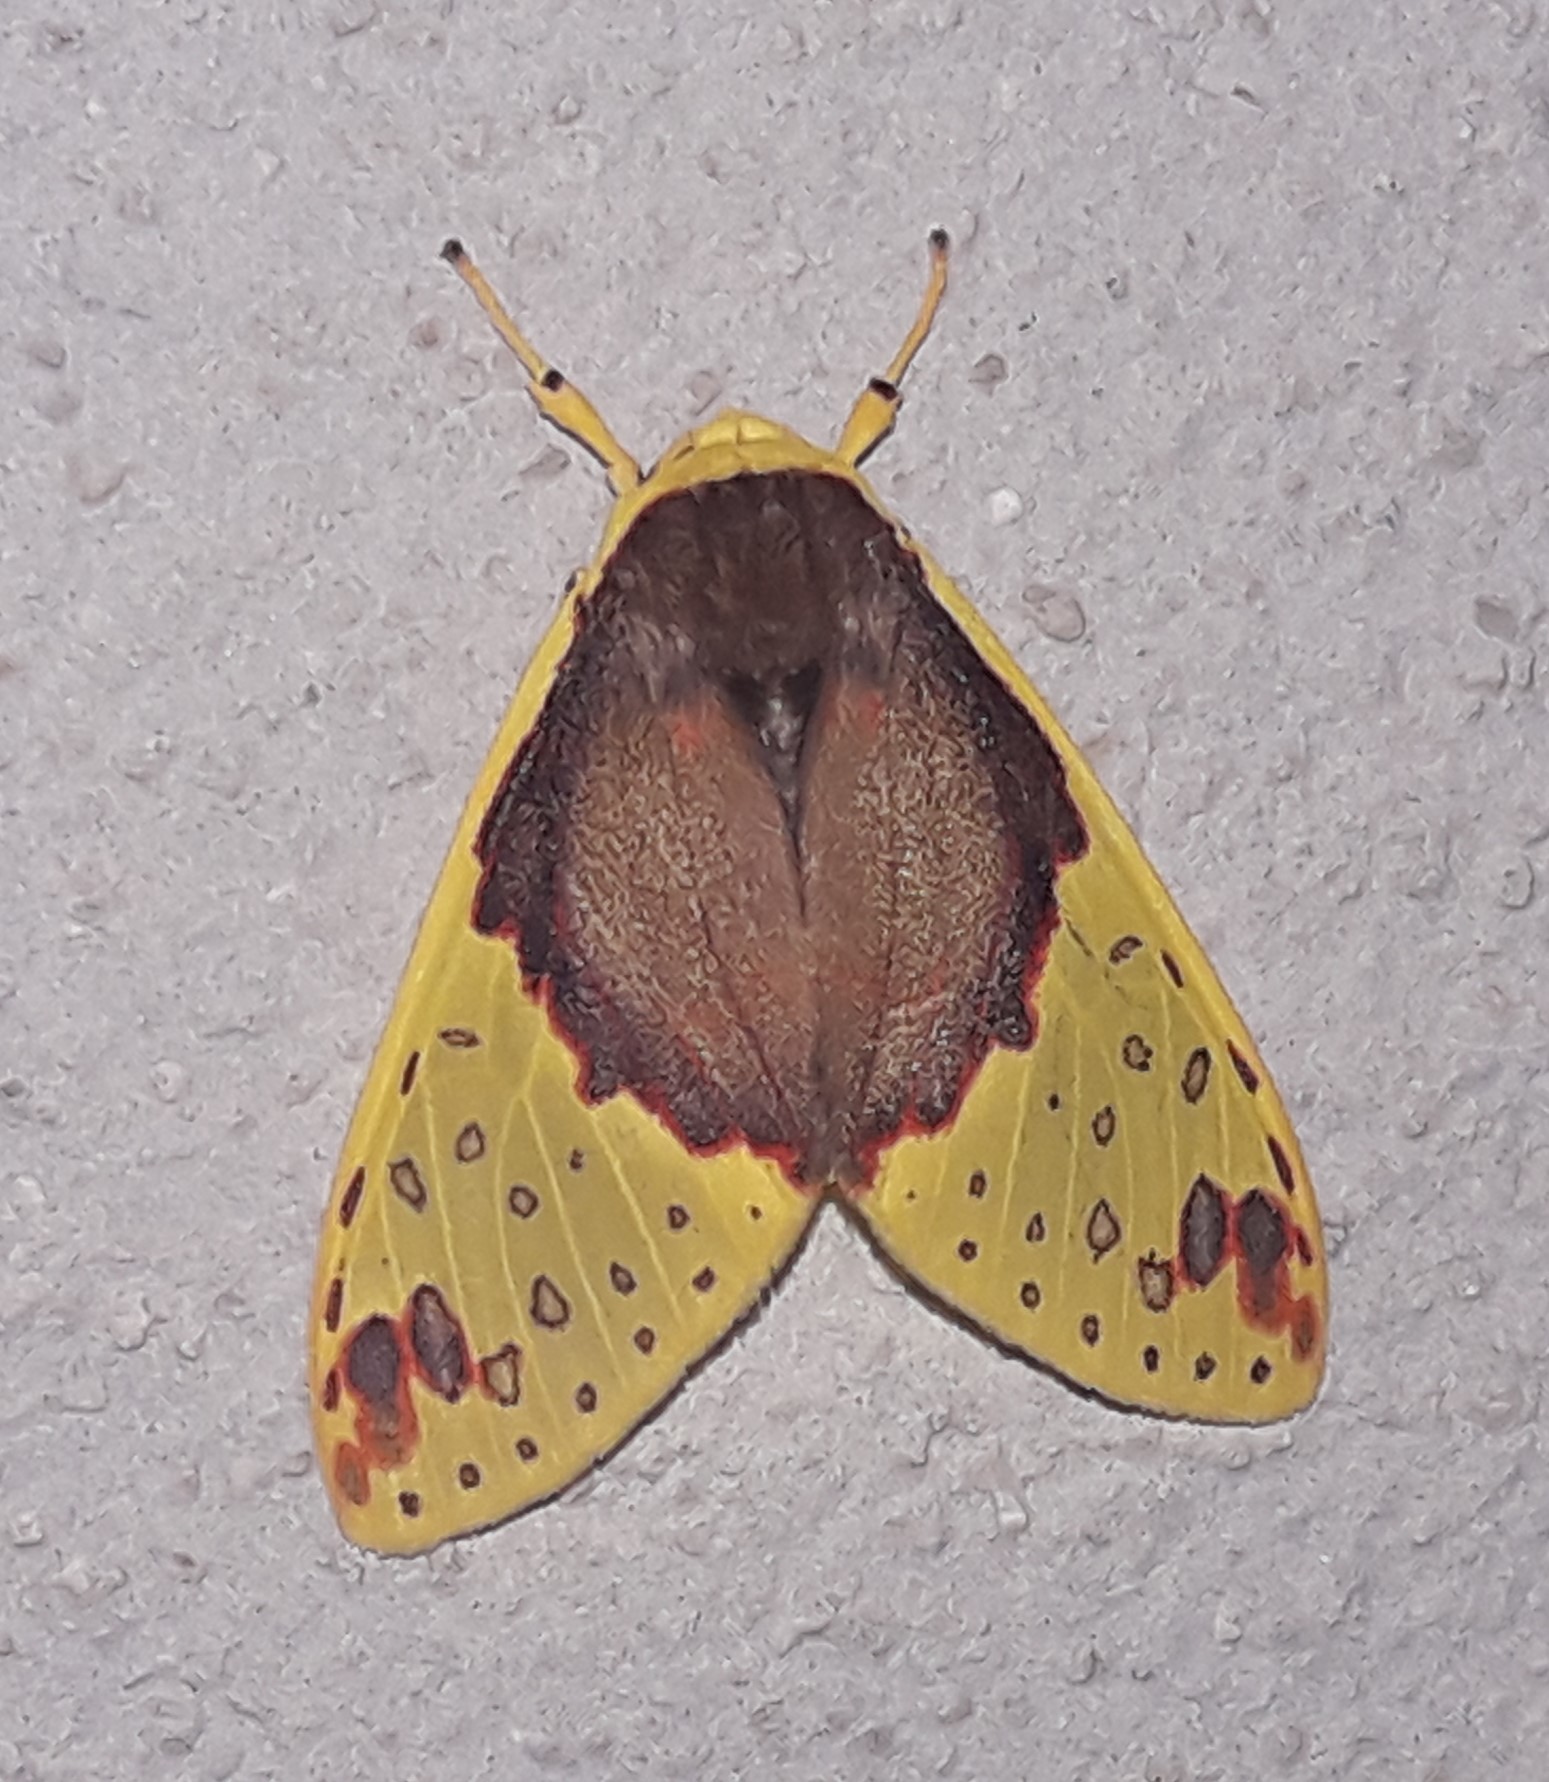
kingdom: Animalia
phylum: Arthropoda
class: Insecta
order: Lepidoptera
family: Erebidae
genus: Amaxia
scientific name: Amaxia
